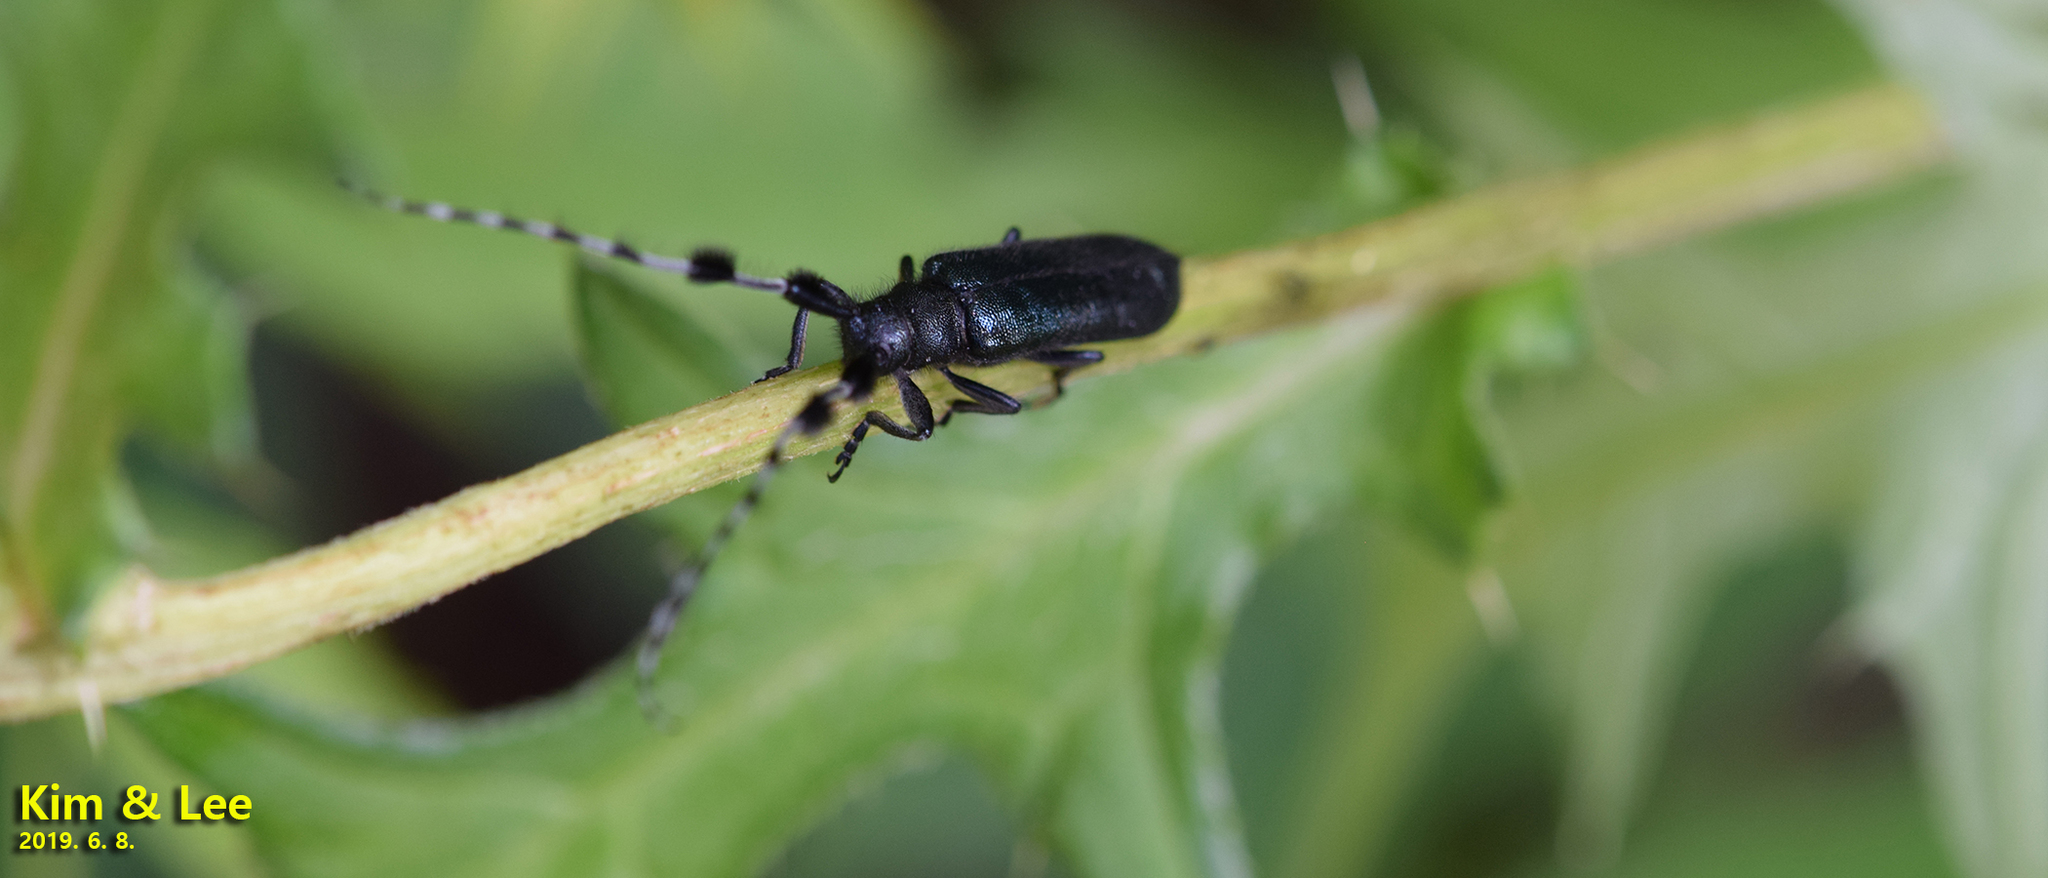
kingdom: Animalia
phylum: Arthropoda
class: Insecta
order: Coleoptera
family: Cerambycidae
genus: Agapanthia
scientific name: Agapanthia amurensis
